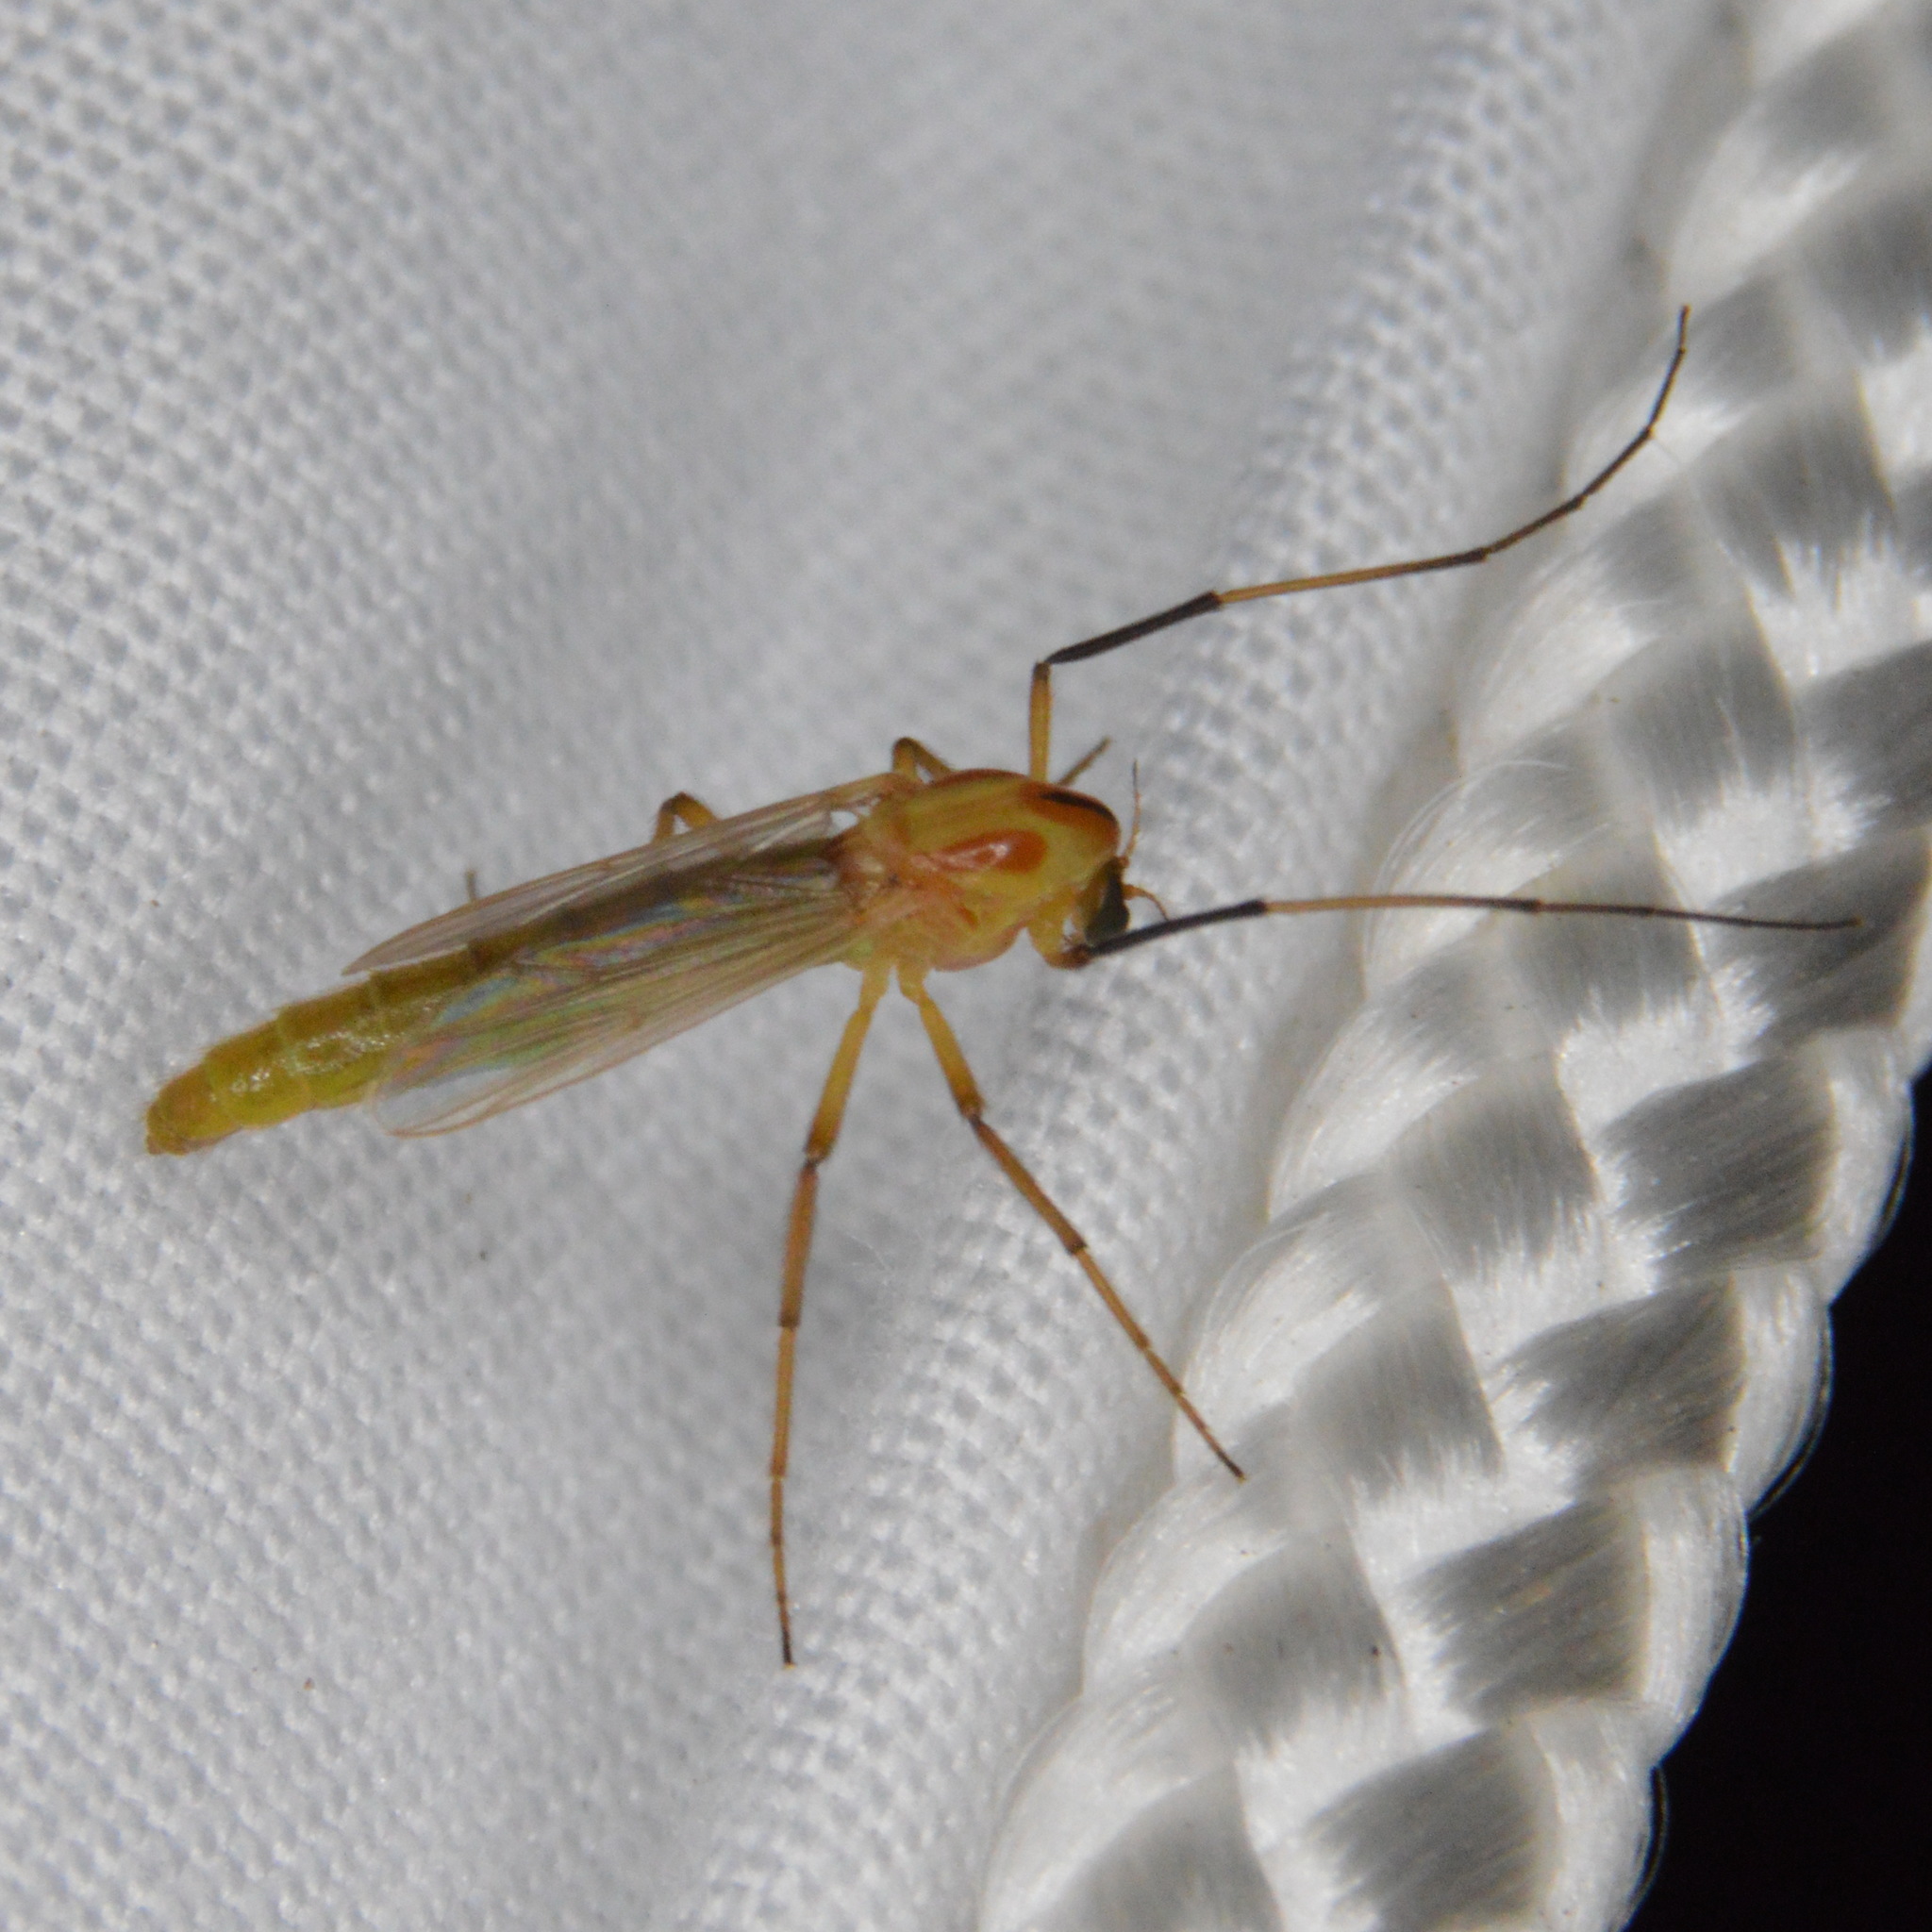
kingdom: Animalia
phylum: Arthropoda
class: Insecta
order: Diptera
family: Chironomidae
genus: Axarus
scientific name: Axarus
